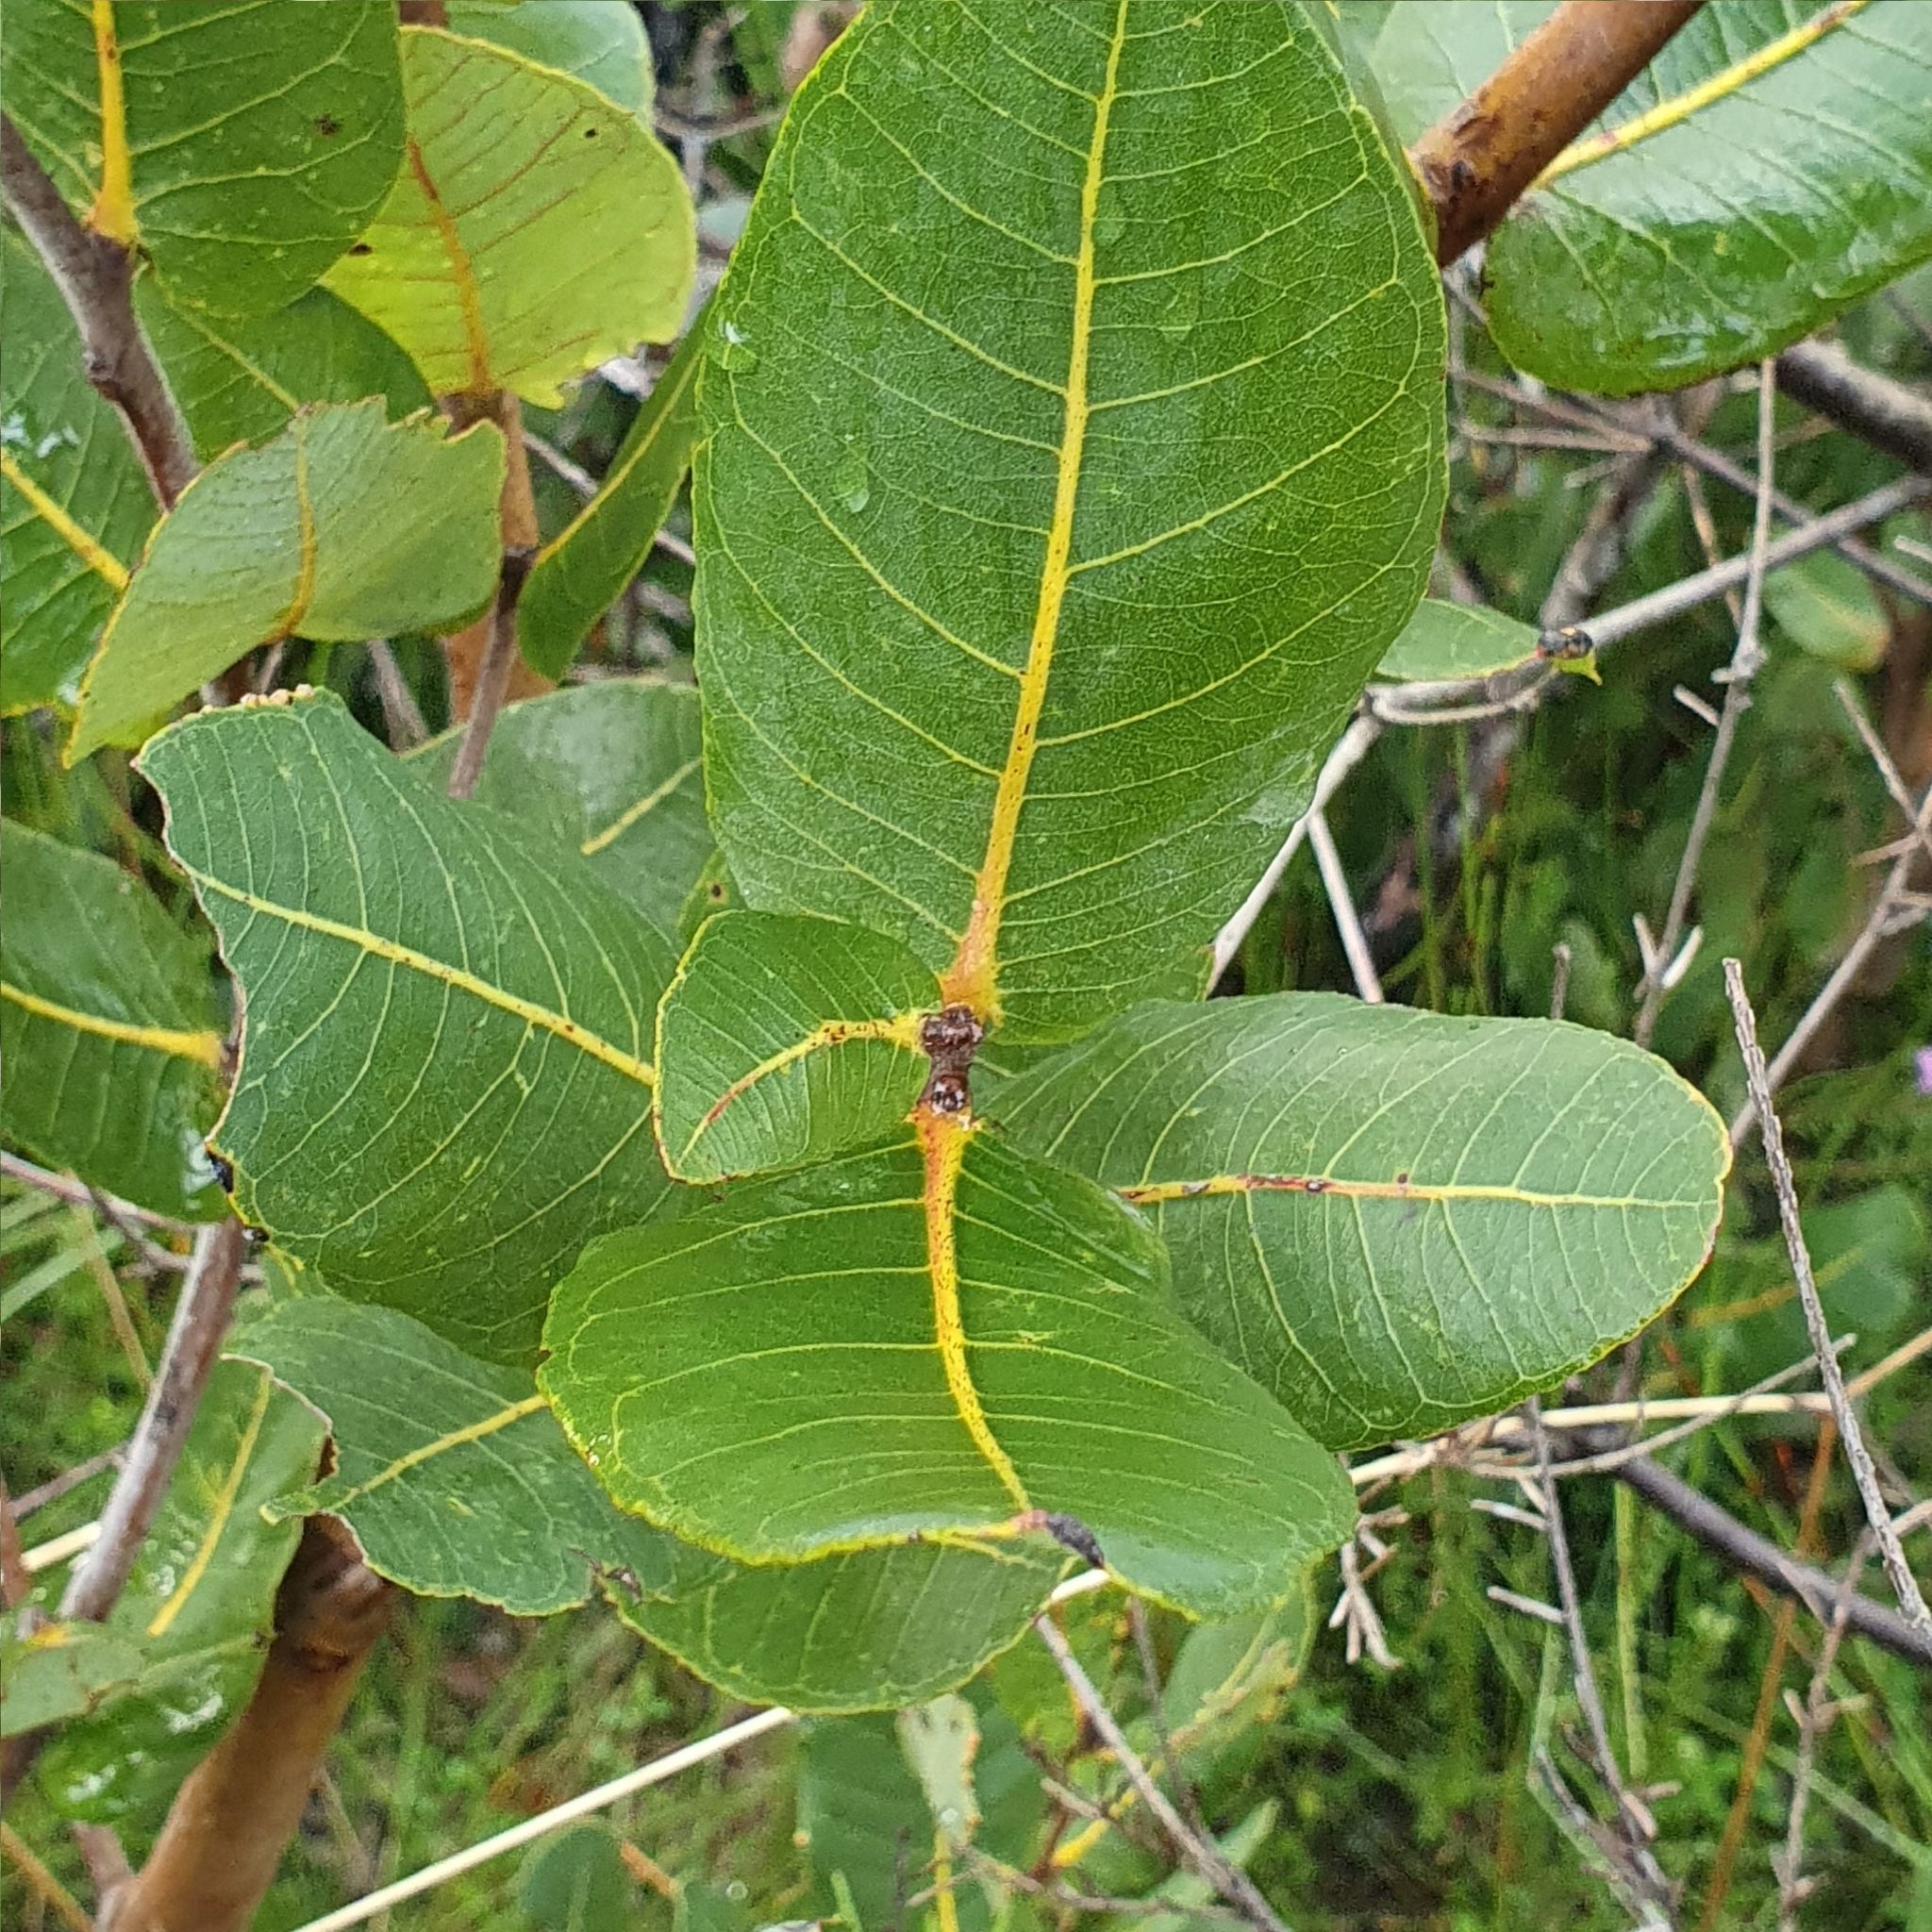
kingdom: Plantae
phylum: Tracheophyta
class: Magnoliopsida
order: Myrtales
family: Myrtaceae
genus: Angophora
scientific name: Angophora hispida
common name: Dwarf-apple
